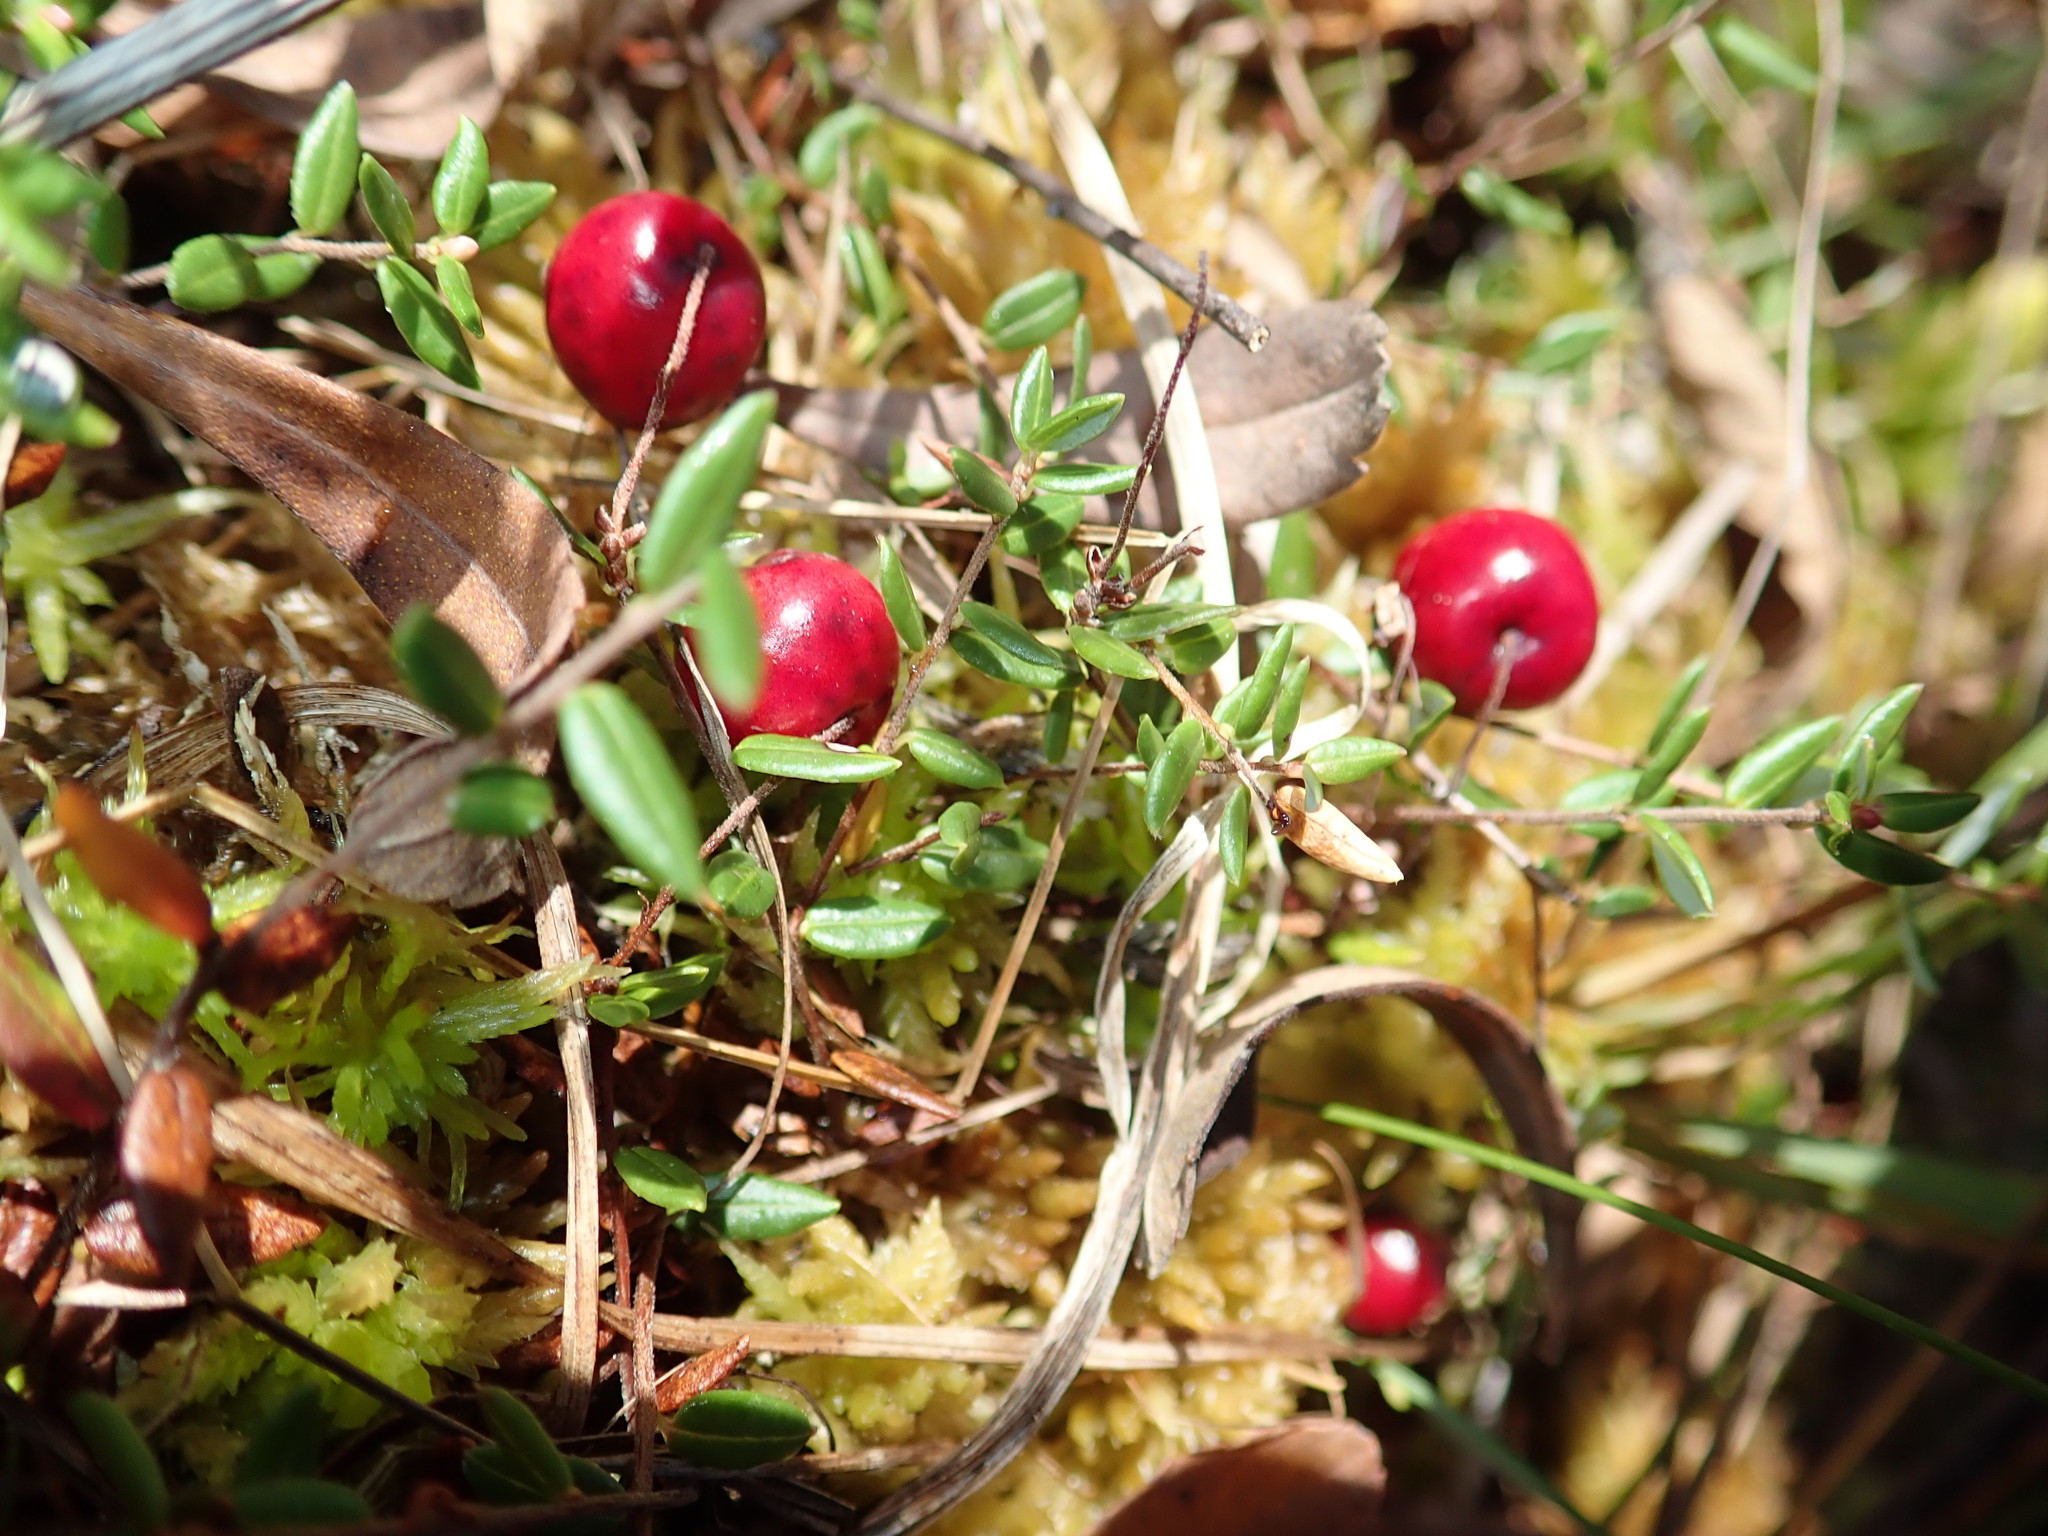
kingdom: Plantae
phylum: Tracheophyta
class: Magnoliopsida
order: Ericales
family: Ericaceae
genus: Vaccinium
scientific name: Vaccinium oxycoccos
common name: Cranberry
